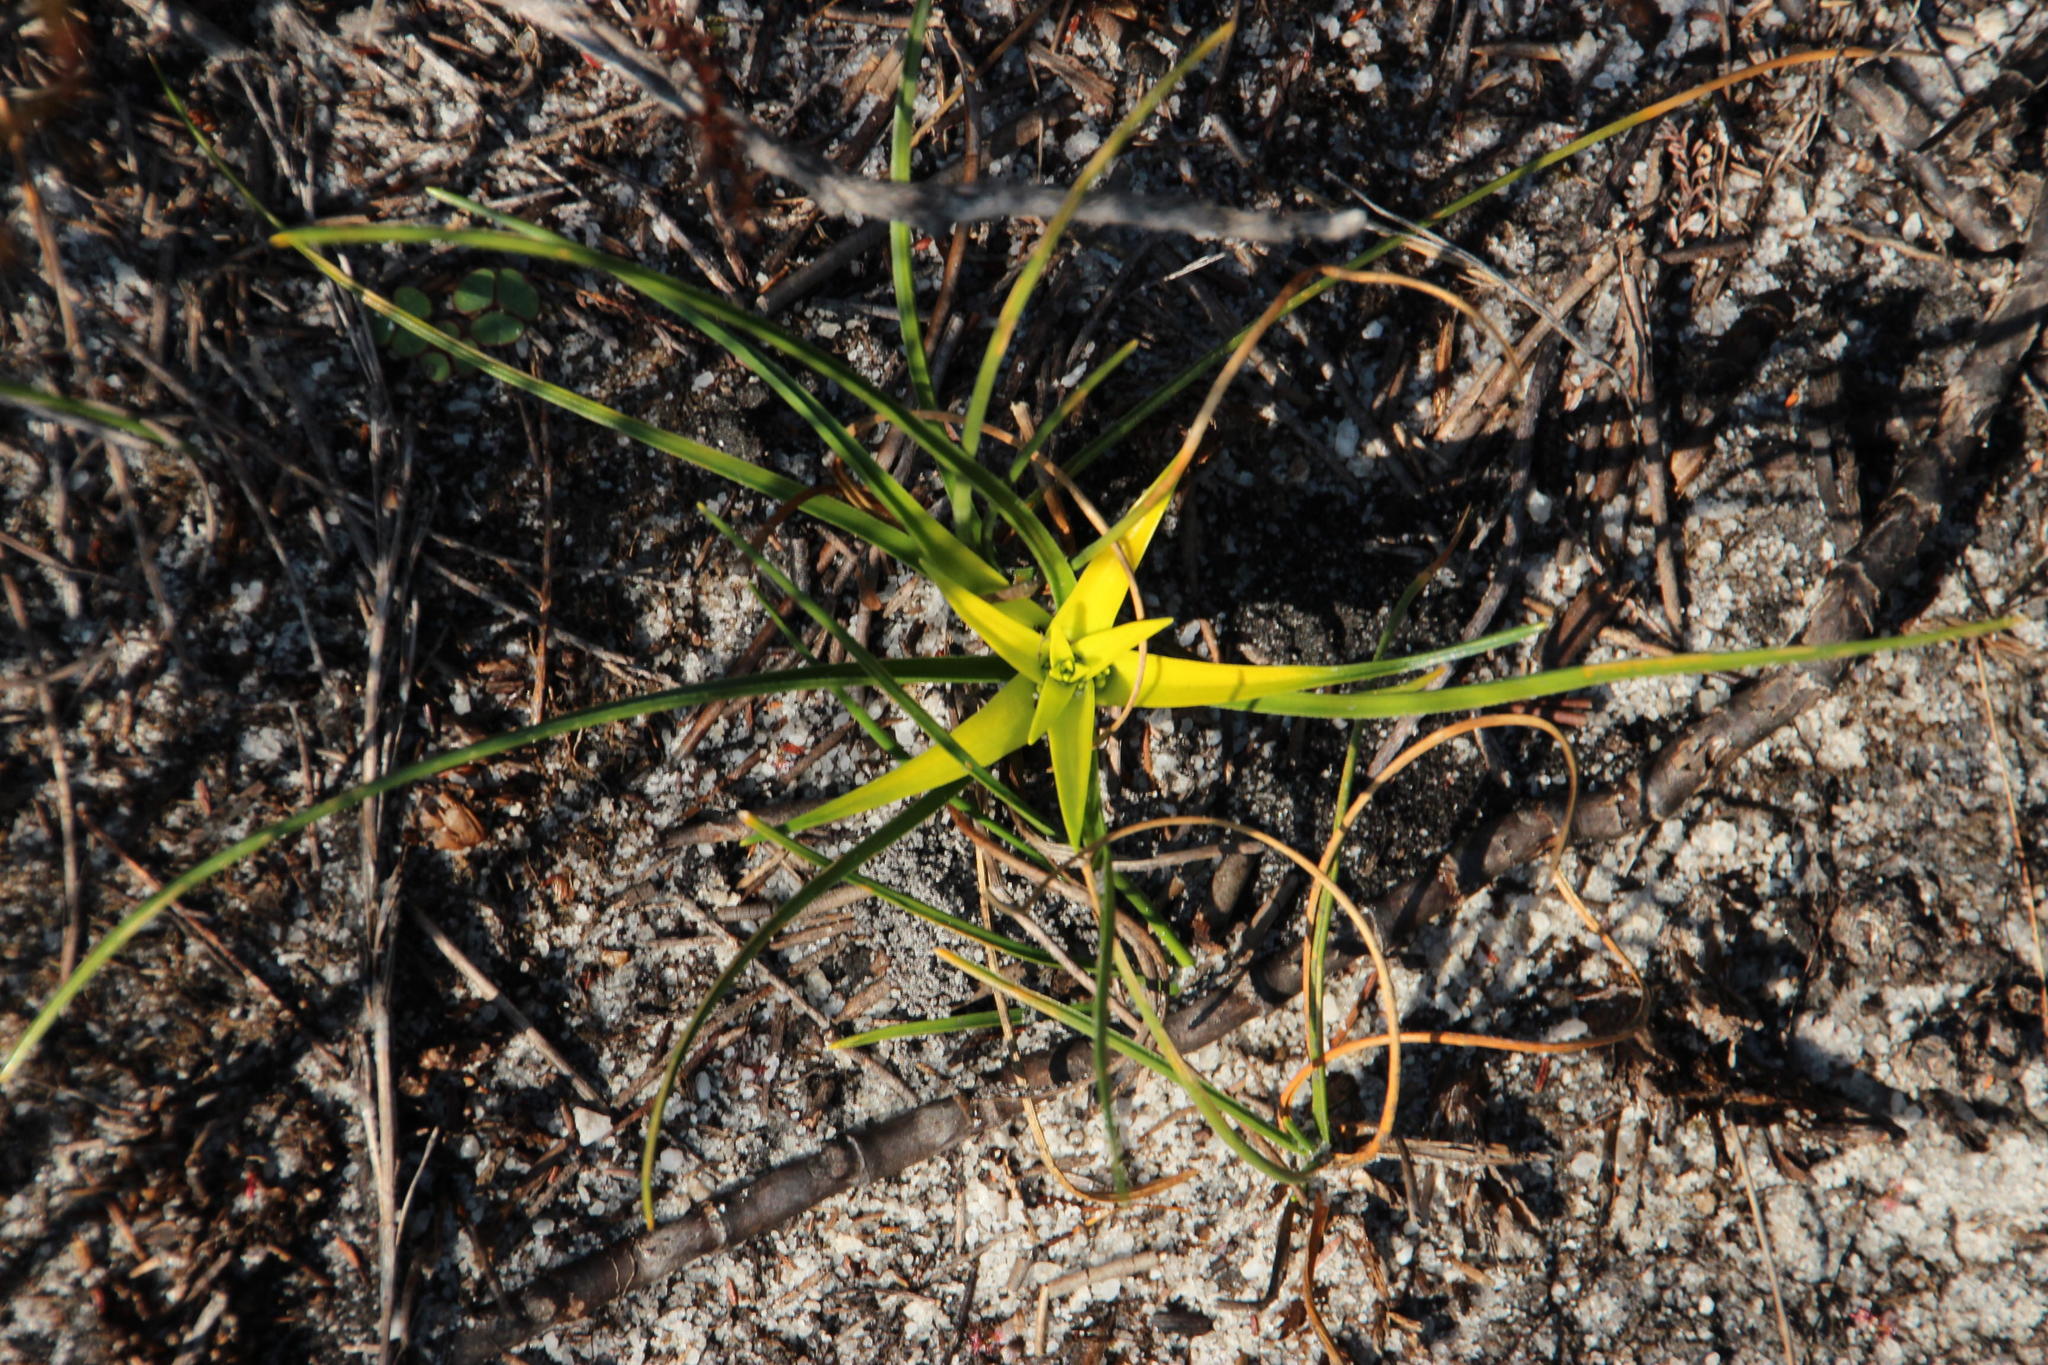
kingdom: Plantae
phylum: Tracheophyta
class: Liliopsida
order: Poales
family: Cyperaceae
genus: Ficinia
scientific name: Ficinia radiata
